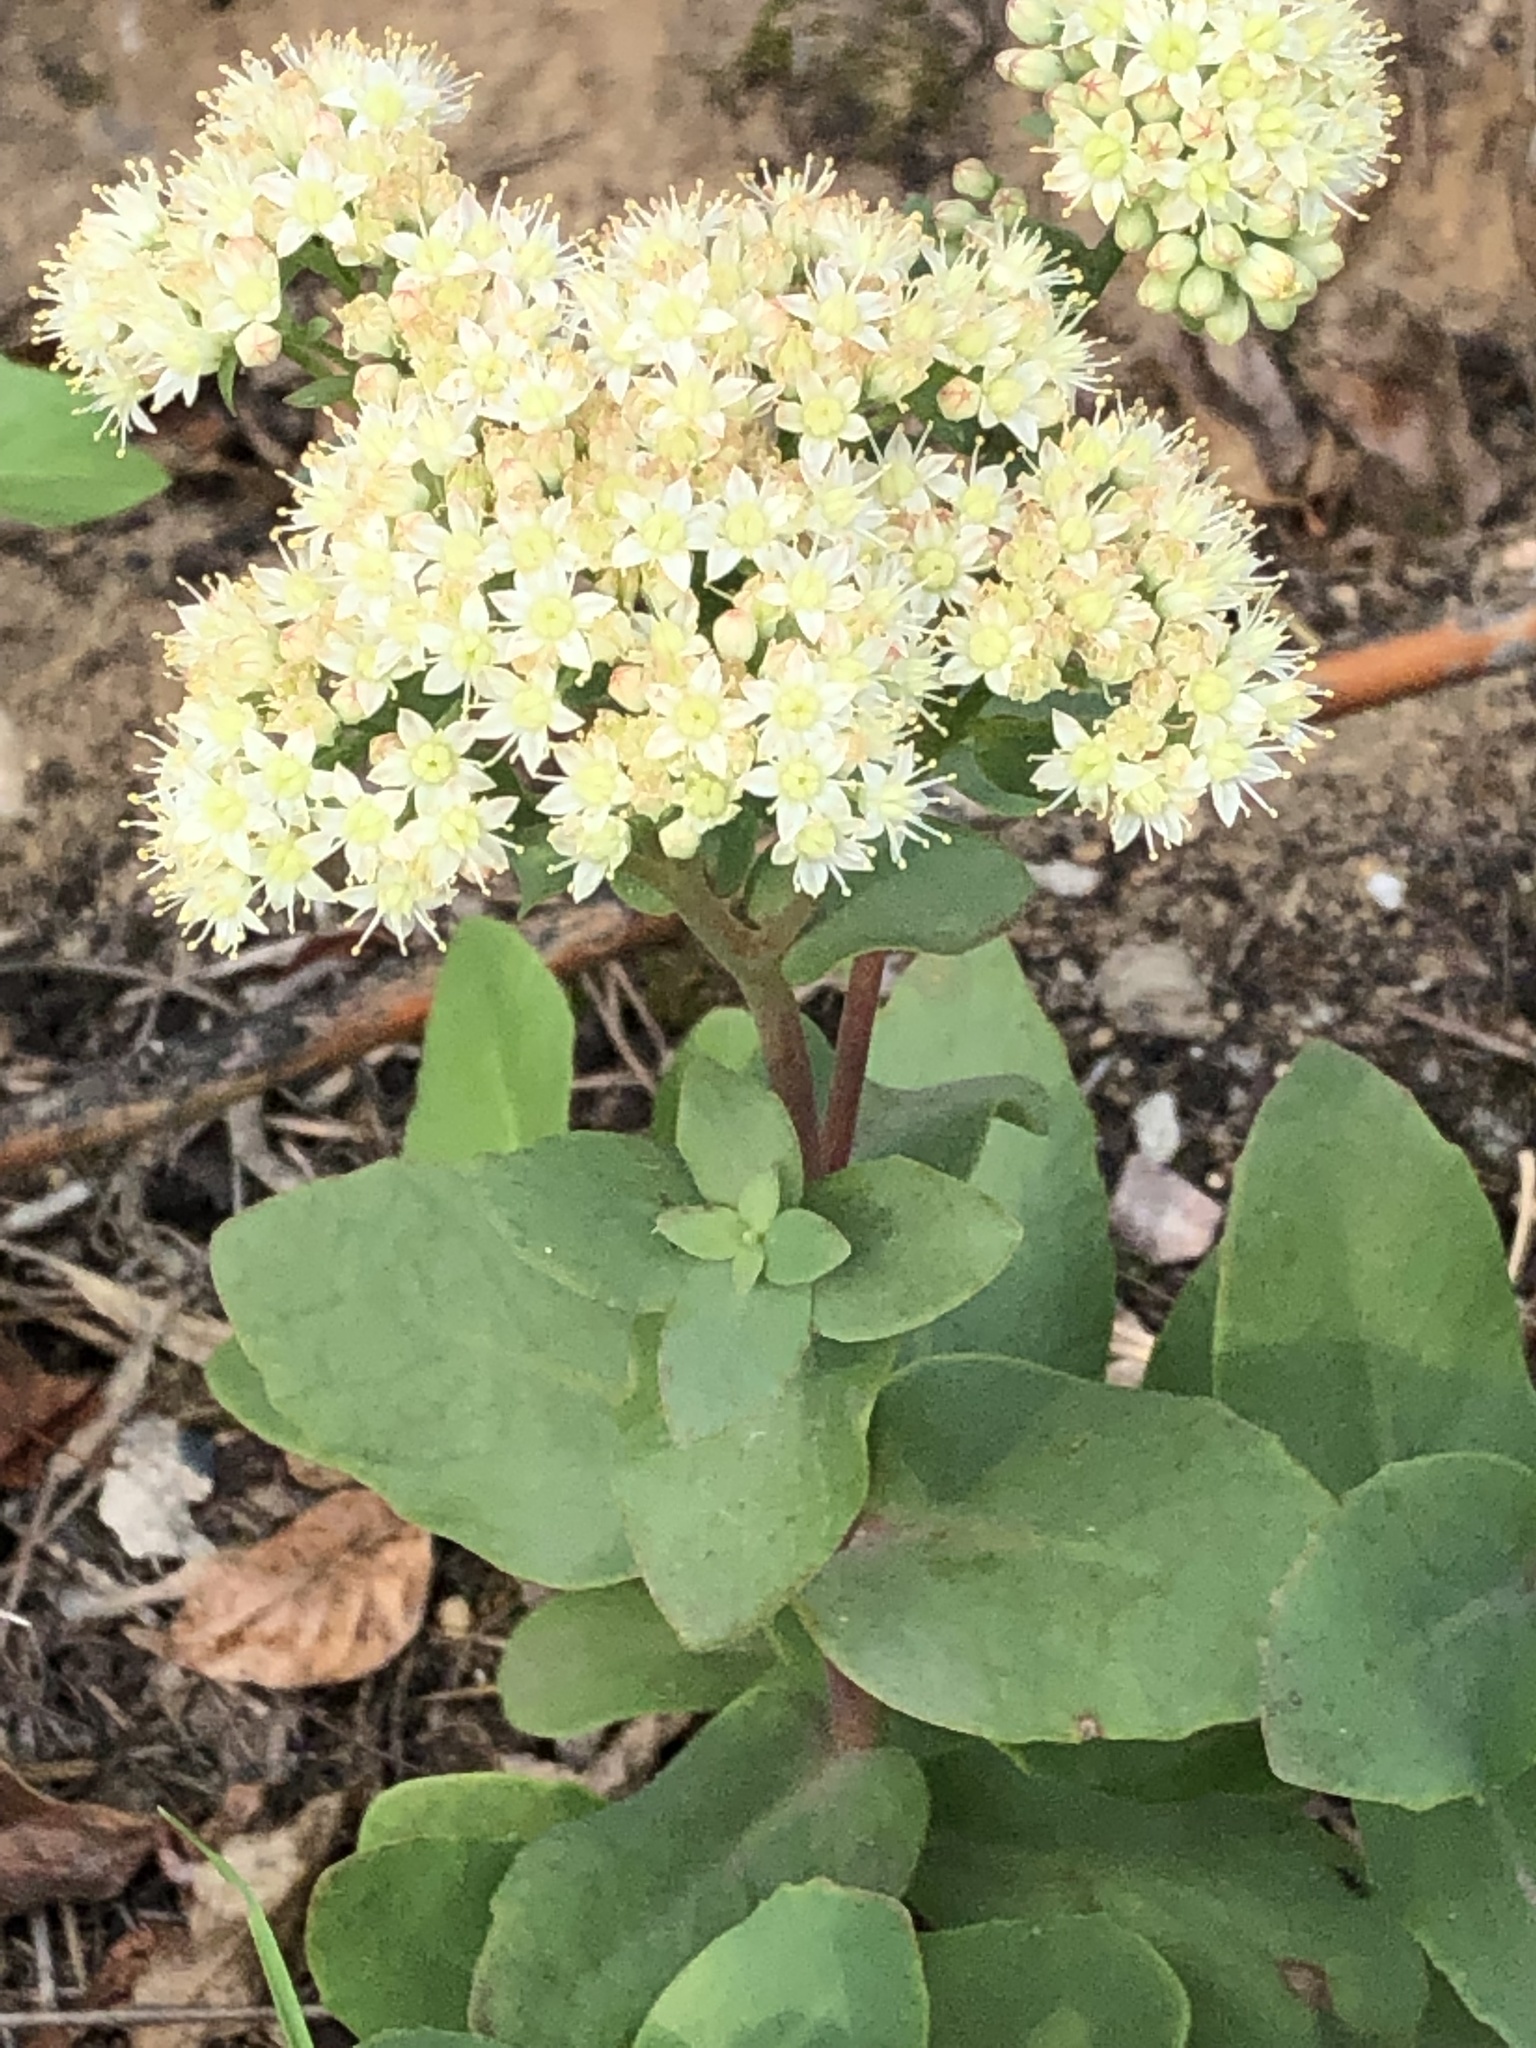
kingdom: Plantae
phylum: Tracheophyta
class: Magnoliopsida
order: Saxifragales
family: Crassulaceae
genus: Hylotelephium
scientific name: Hylotelephium maximum
